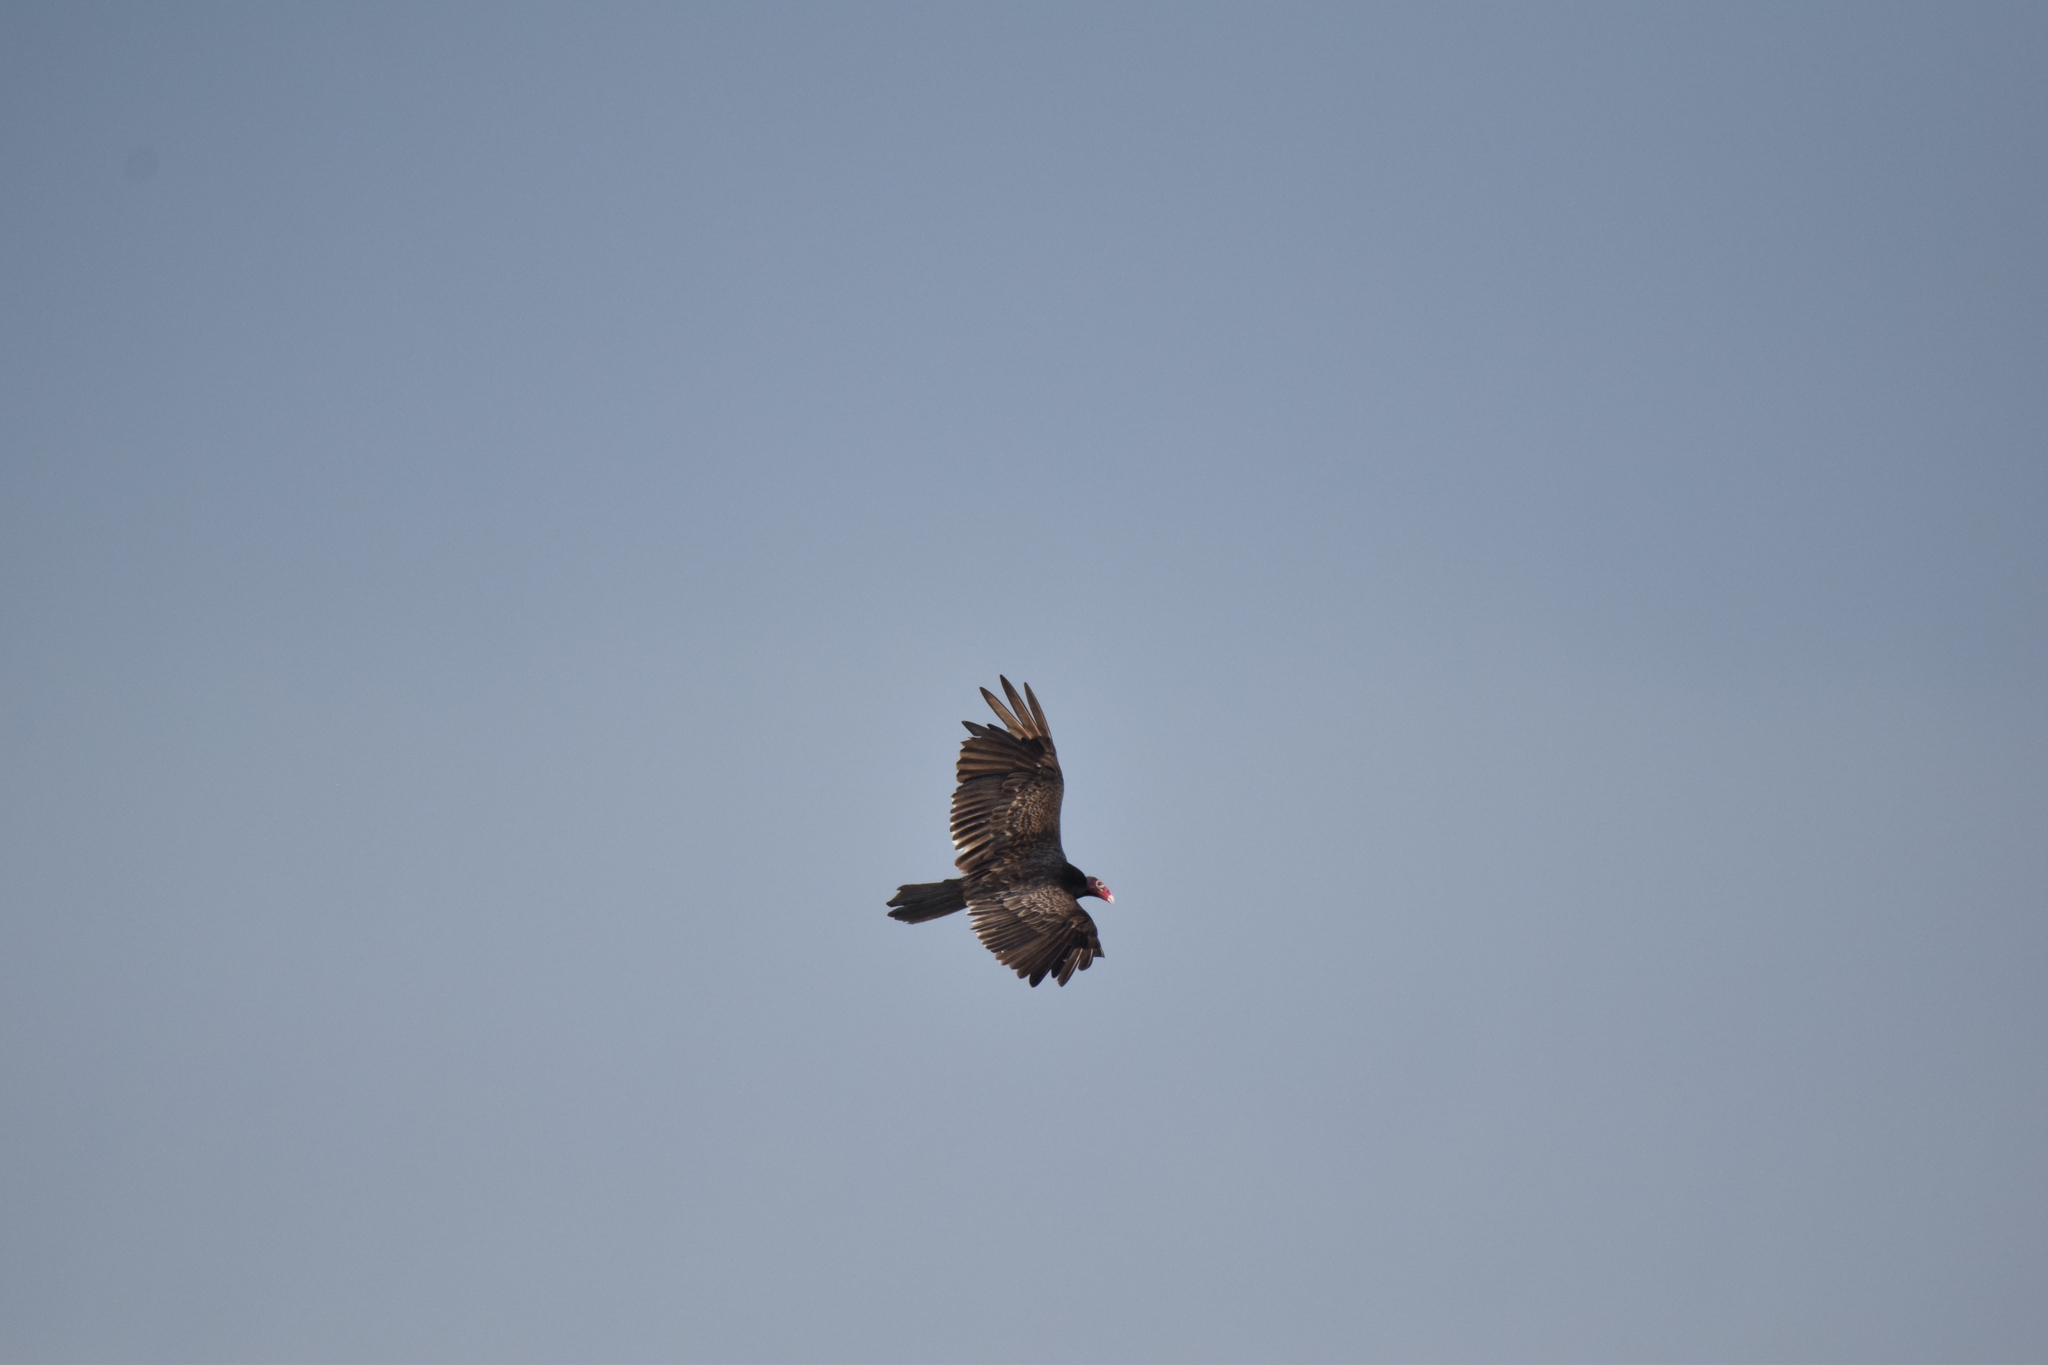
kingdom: Animalia
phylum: Chordata
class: Aves
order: Accipitriformes
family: Cathartidae
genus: Cathartes
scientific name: Cathartes aura
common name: Turkey vulture
